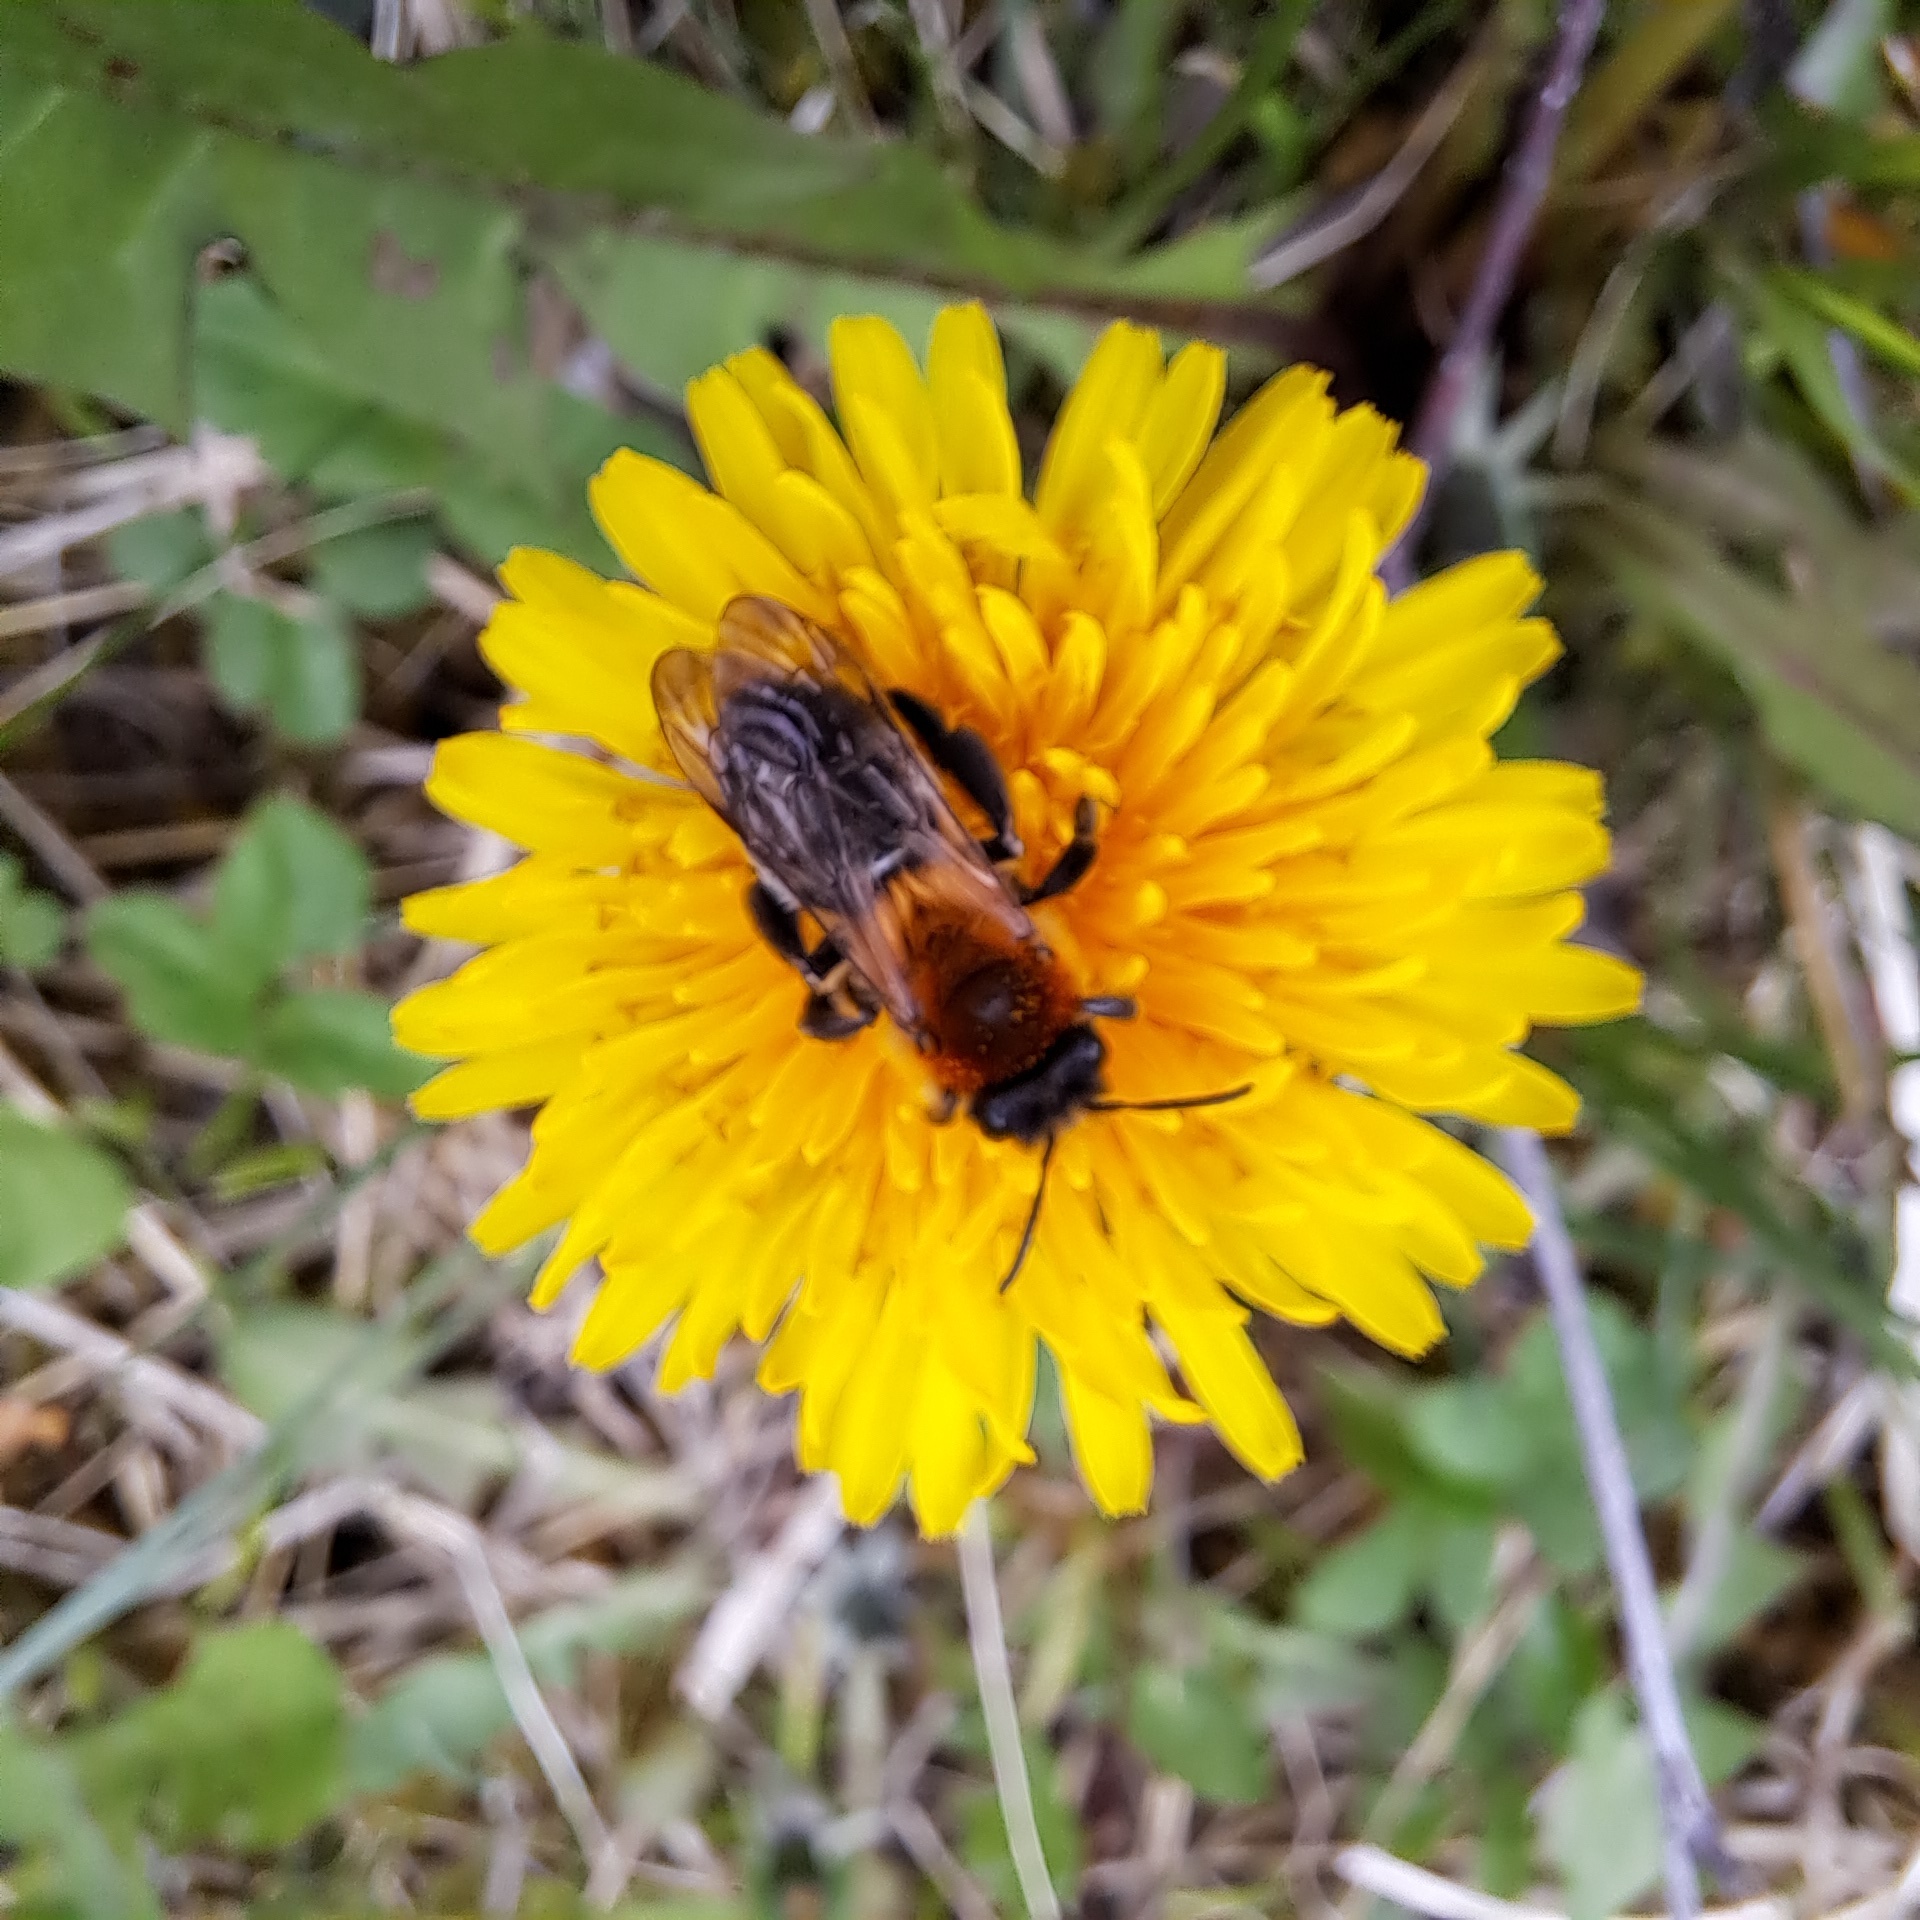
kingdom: Animalia
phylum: Arthropoda
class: Insecta
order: Hymenoptera
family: Andrenidae
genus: Andrena
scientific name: Andrena nitida
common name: Grey-patched mining bee
